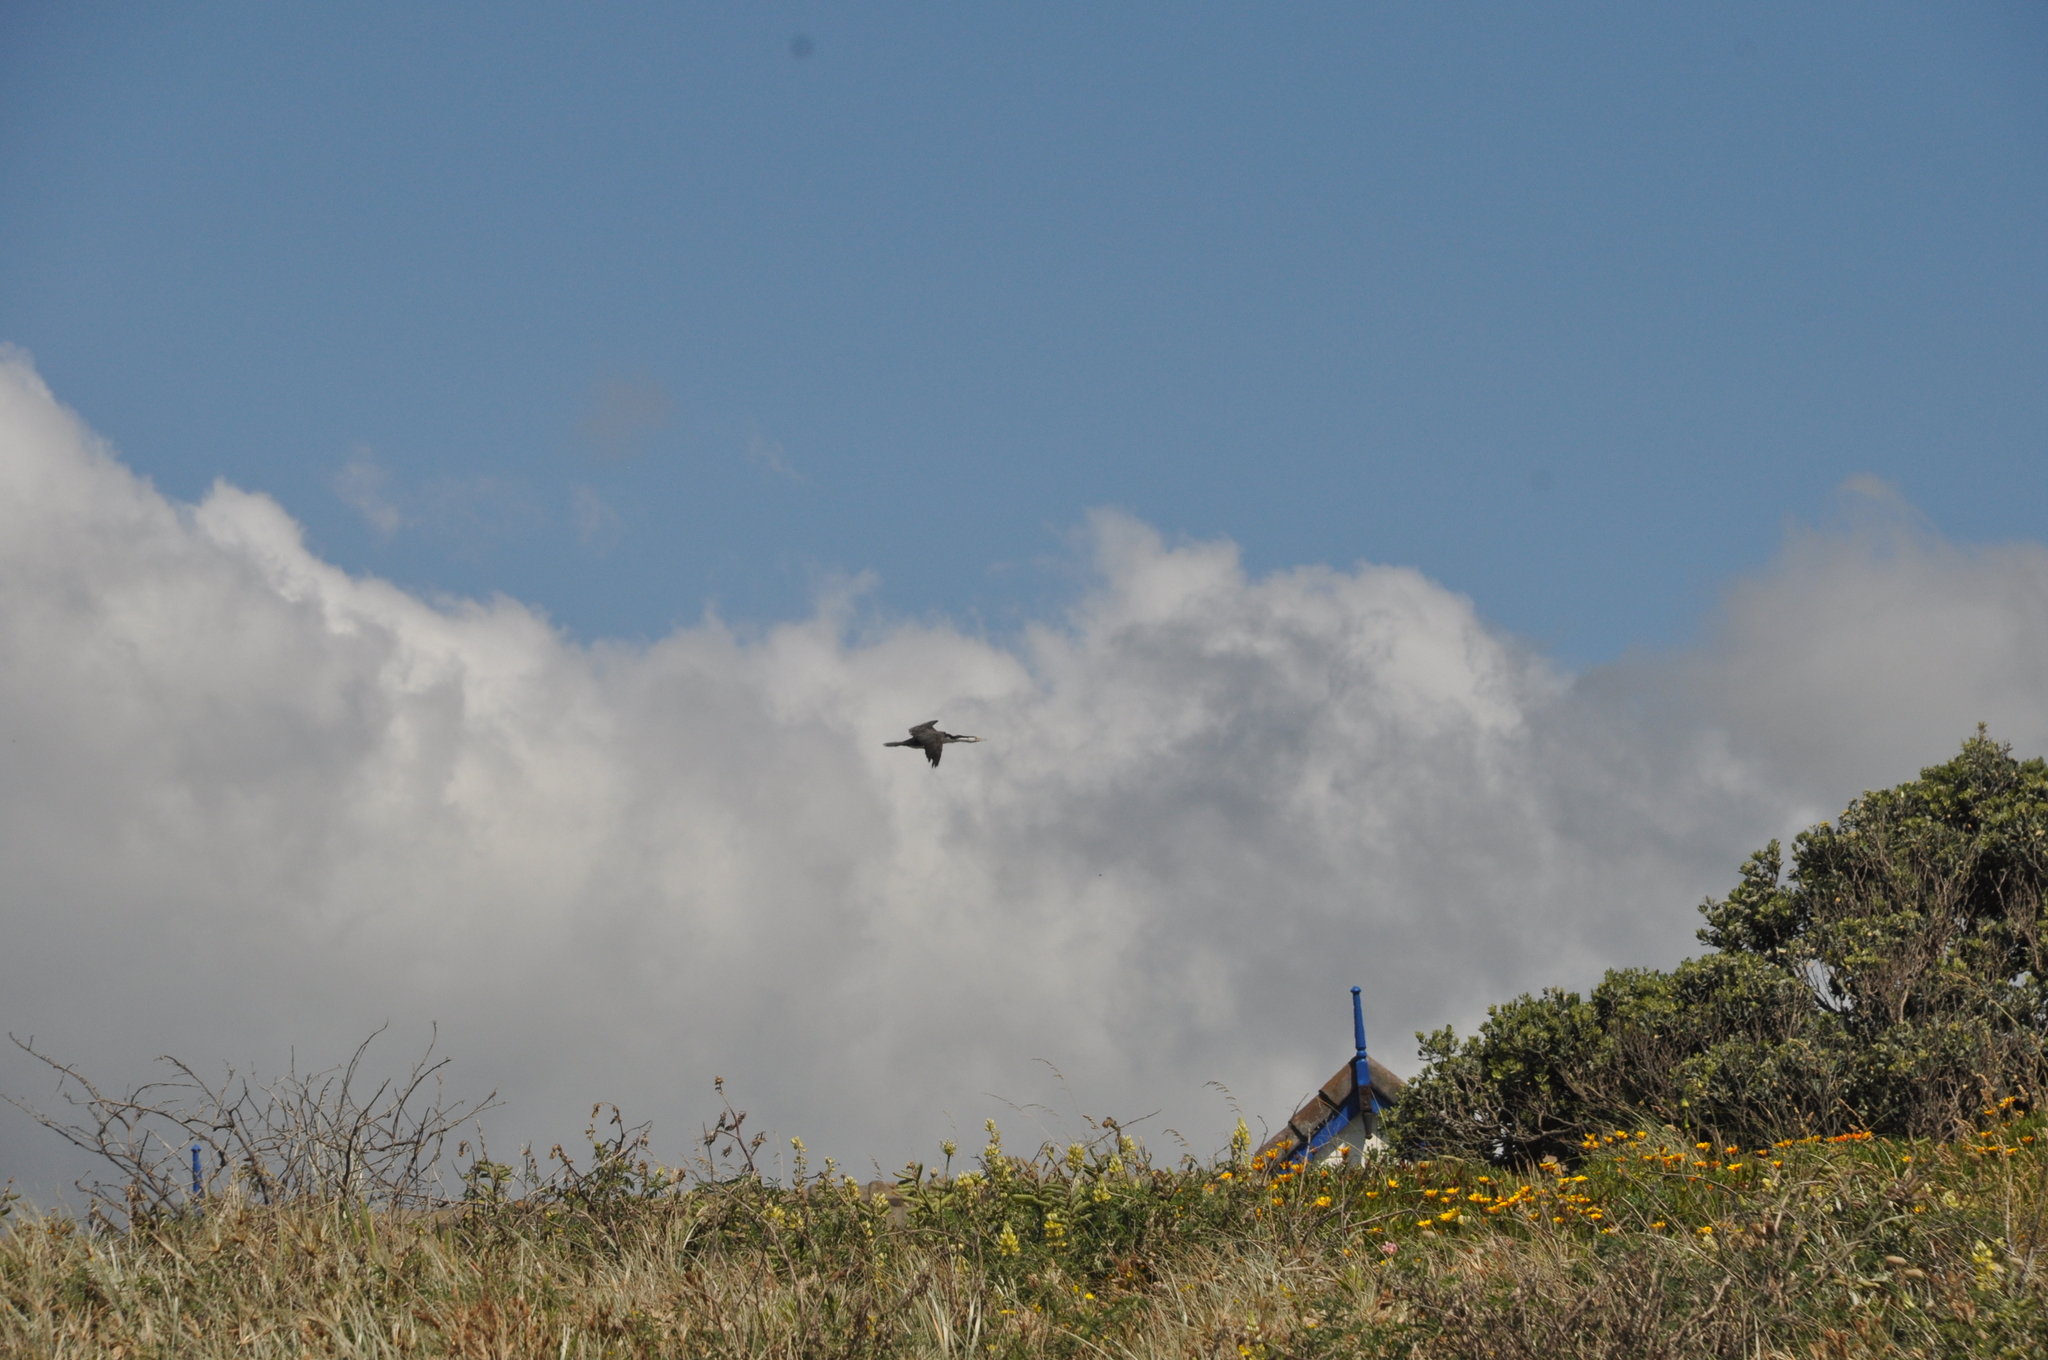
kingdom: Animalia
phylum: Chordata
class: Aves
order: Suliformes
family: Phalacrocoracidae
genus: Phalacrocorax
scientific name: Phalacrocorax varius
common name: Pied cormorant
